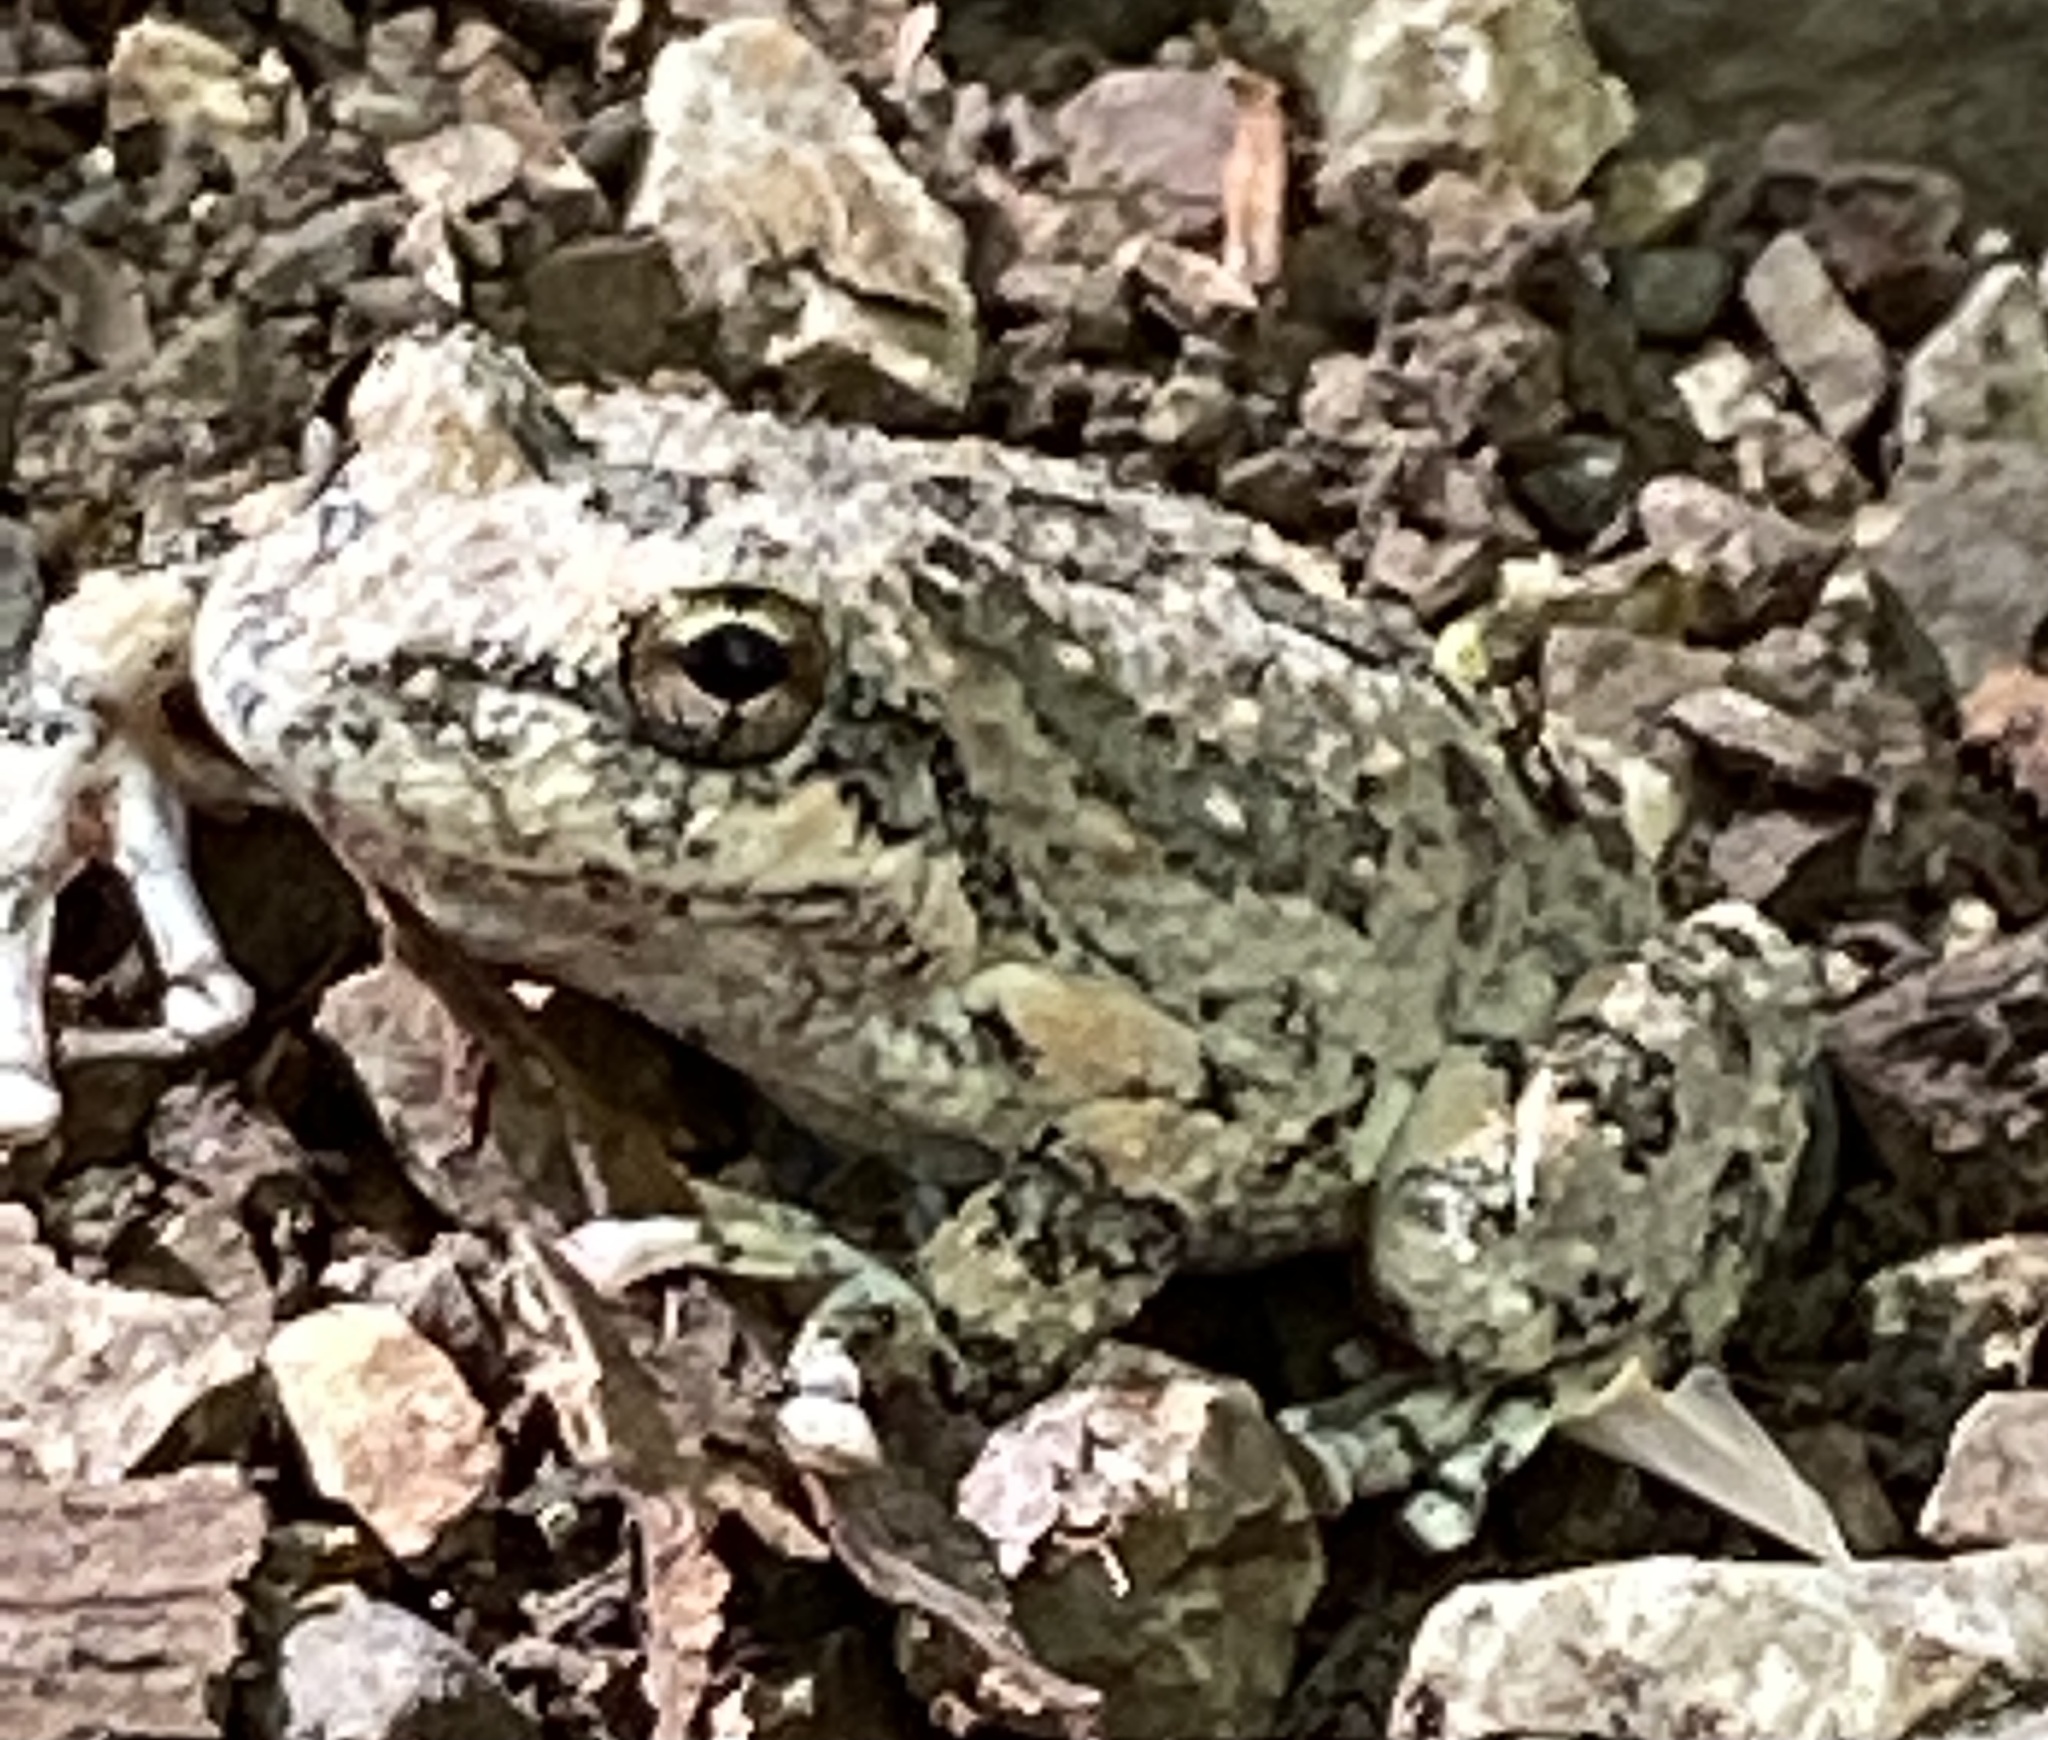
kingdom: Animalia
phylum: Chordata
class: Amphibia
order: Anura
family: Hylidae
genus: Pseudacris
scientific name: Pseudacris cadaverina
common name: California chorus frog
